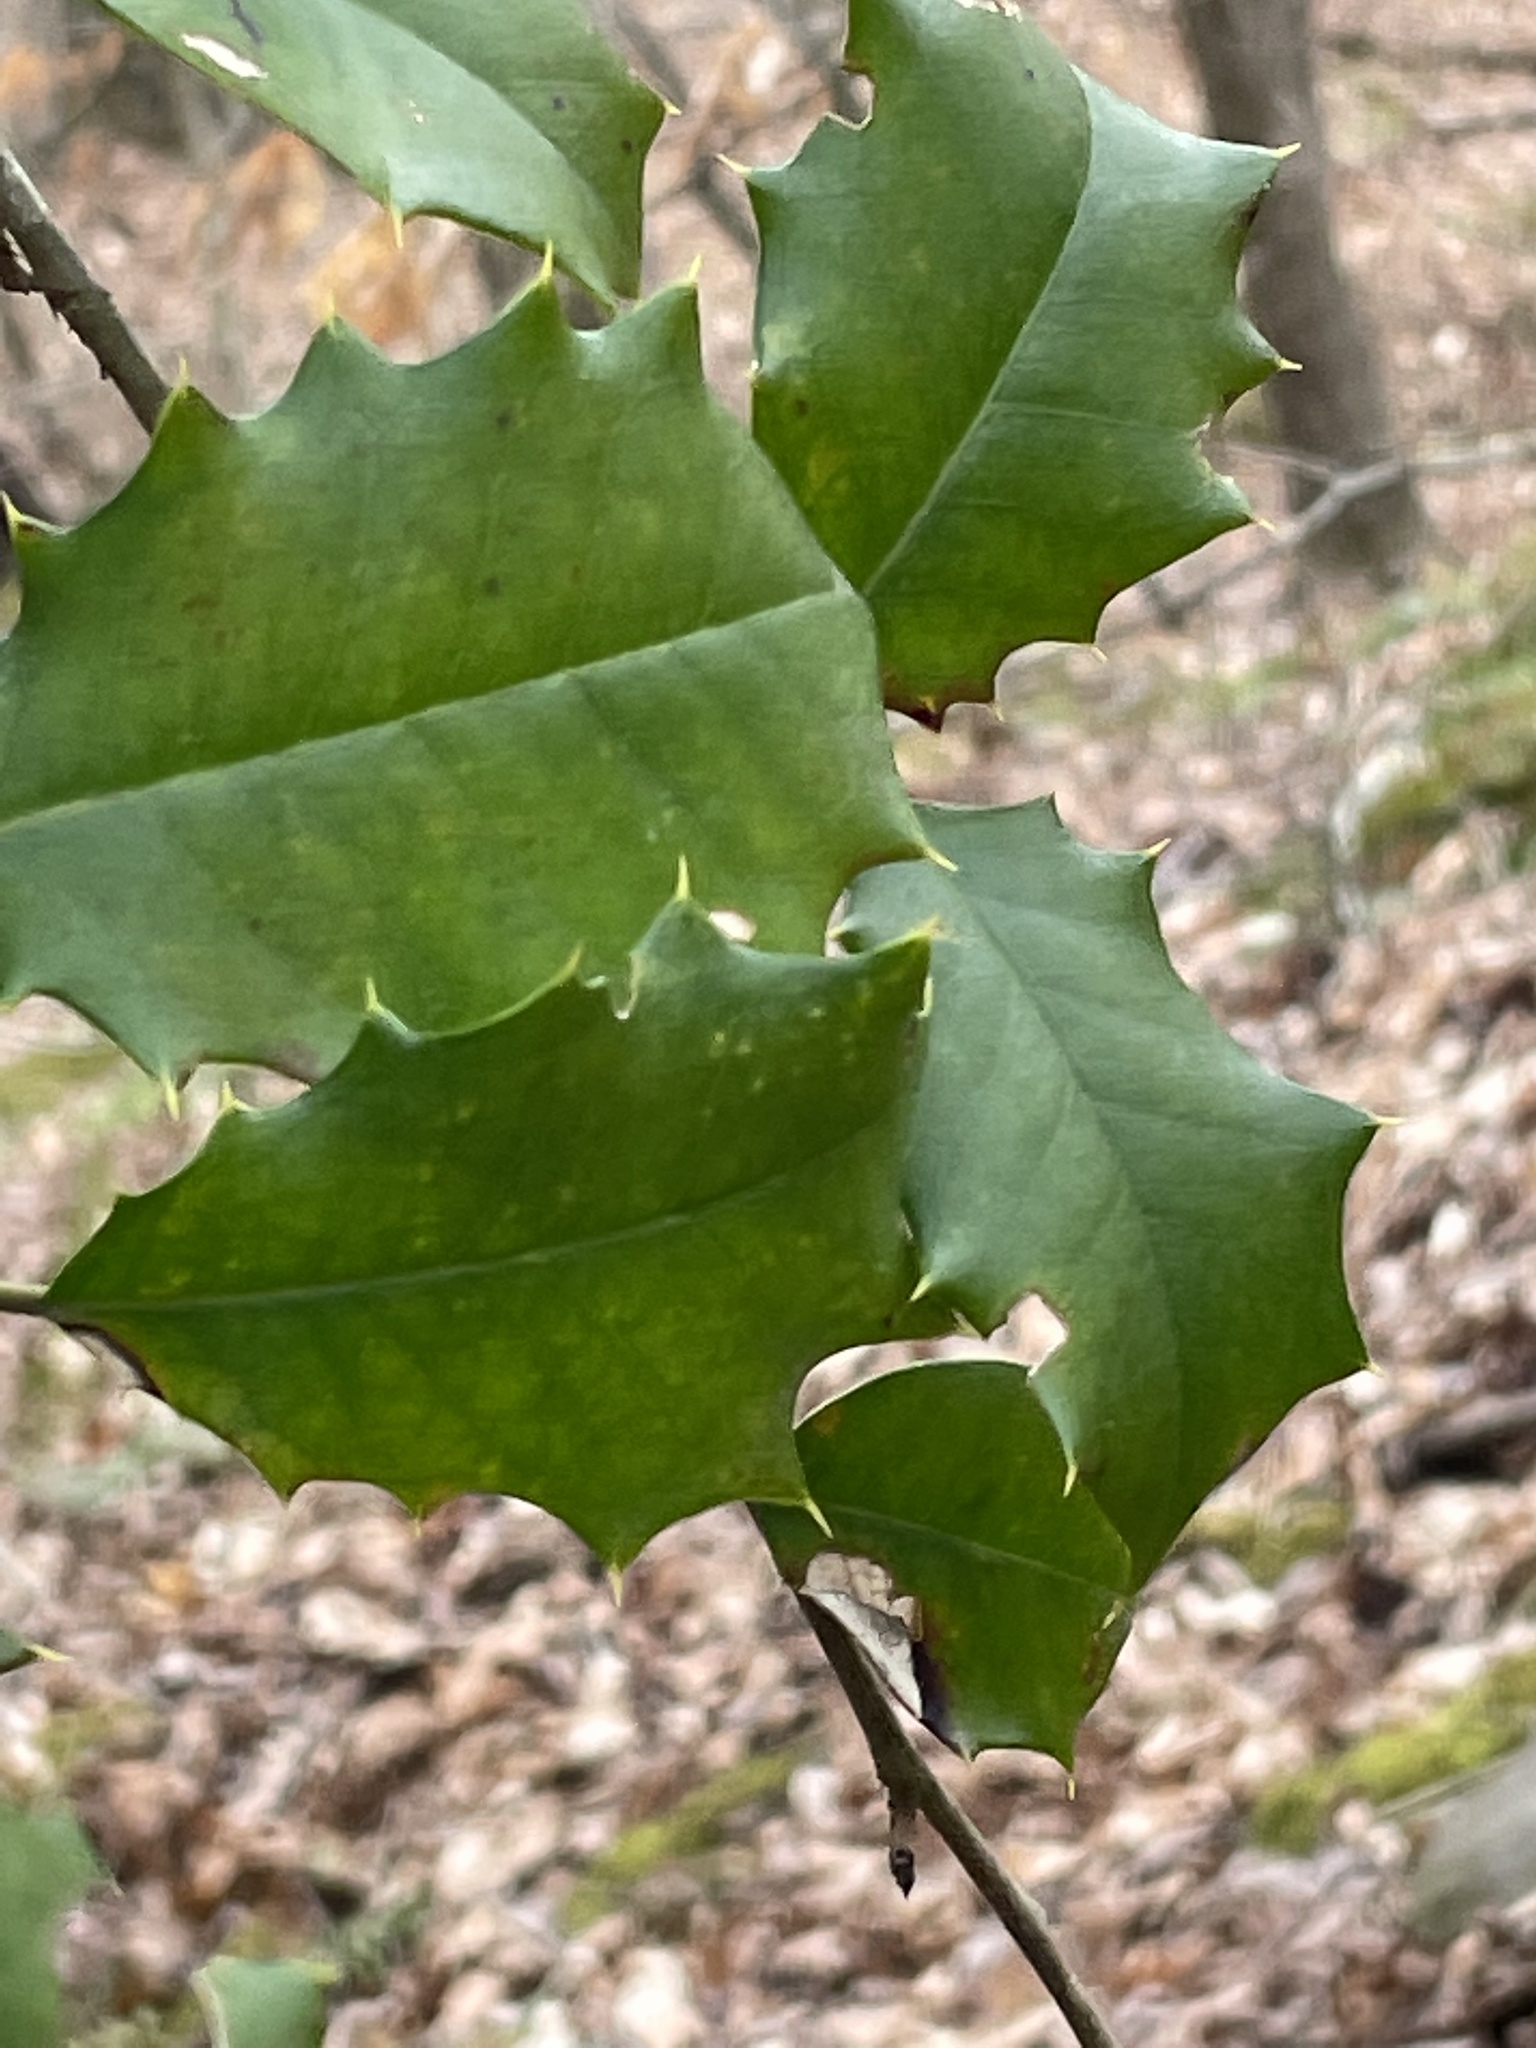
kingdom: Plantae
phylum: Tracheophyta
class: Magnoliopsida
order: Aquifoliales
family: Aquifoliaceae
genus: Ilex
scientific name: Ilex opaca
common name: American holly
